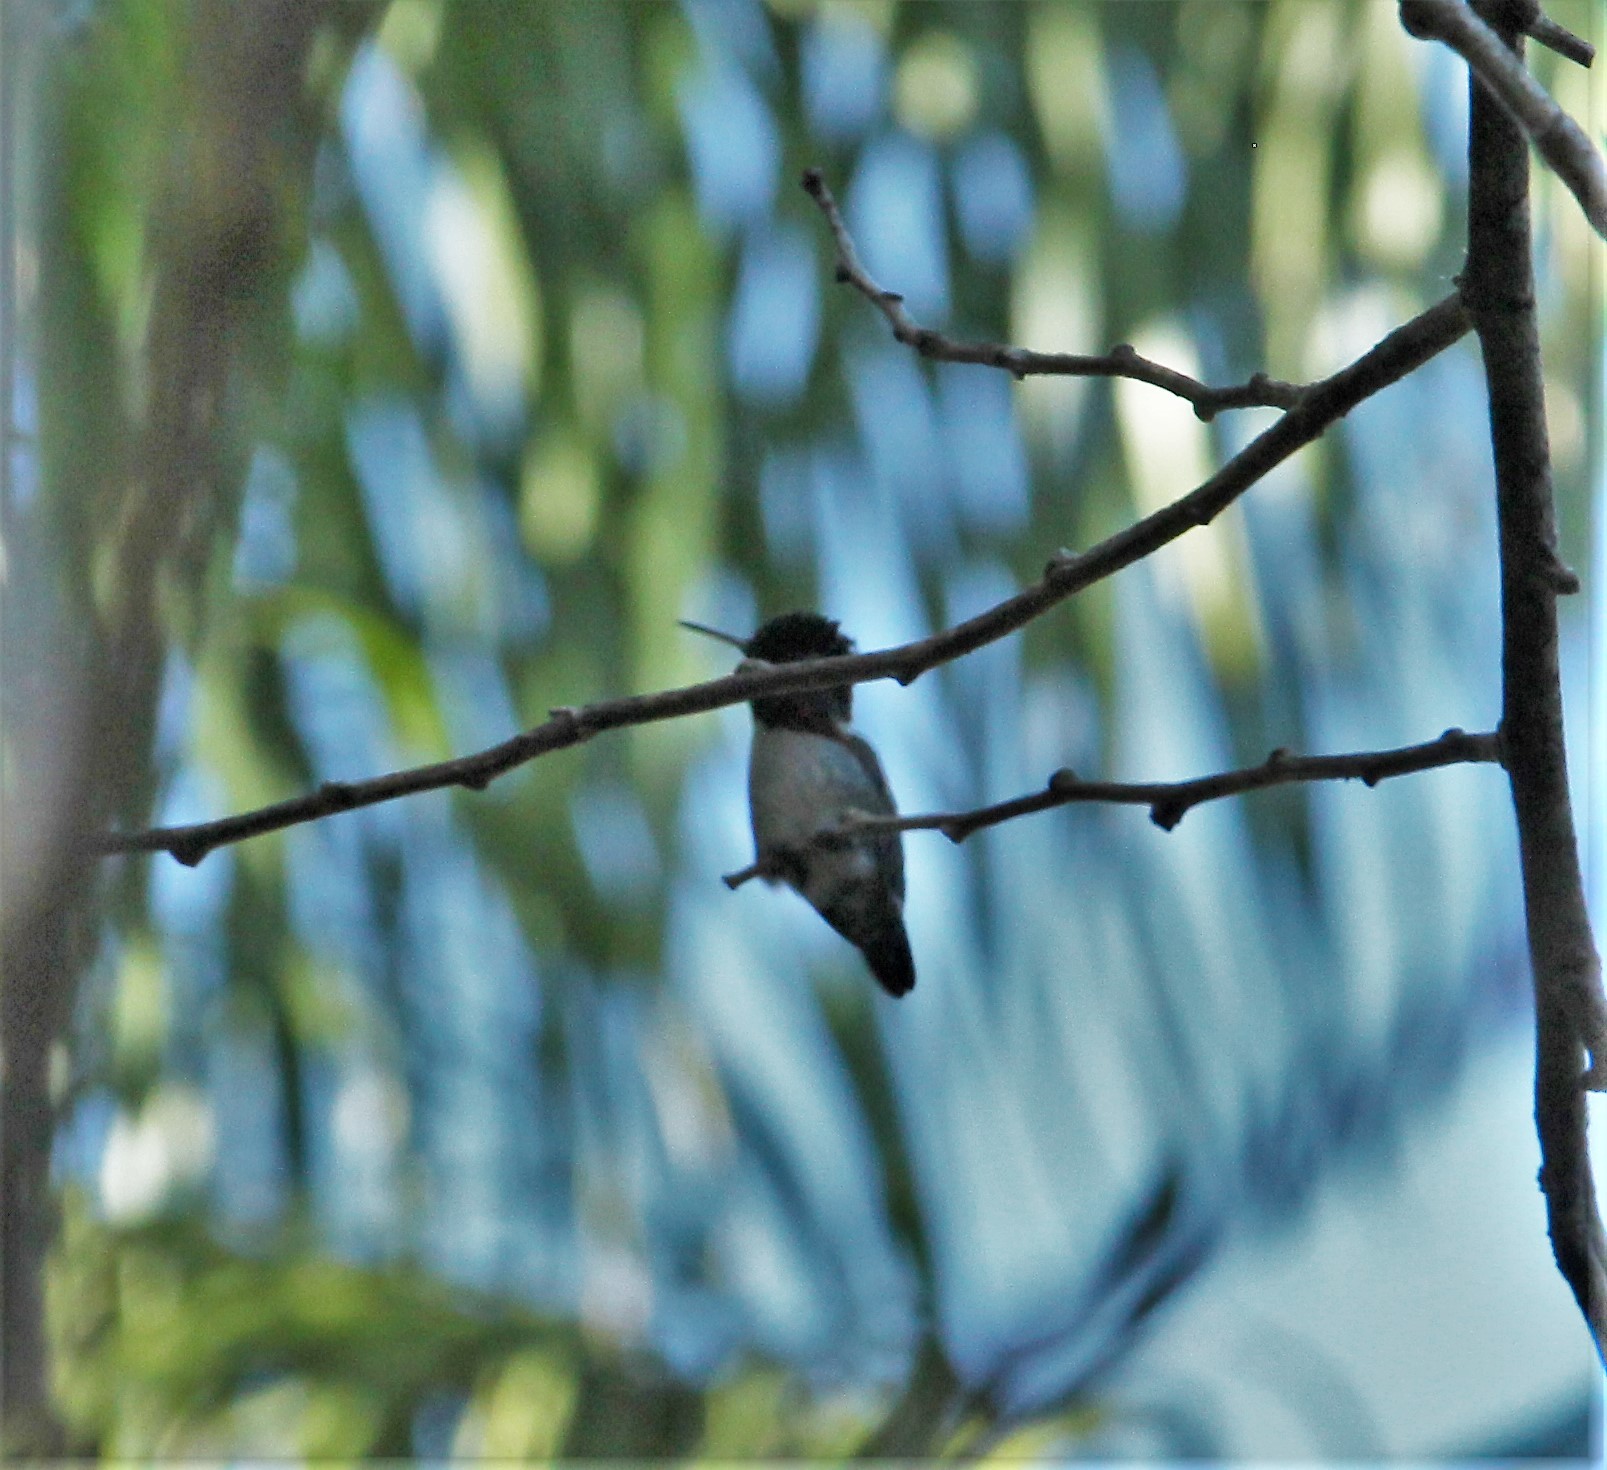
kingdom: Animalia
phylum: Chordata
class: Aves
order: Apodiformes
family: Trochilidae
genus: Mellisuga
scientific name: Mellisuga helenae
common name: Bee hummingbird
